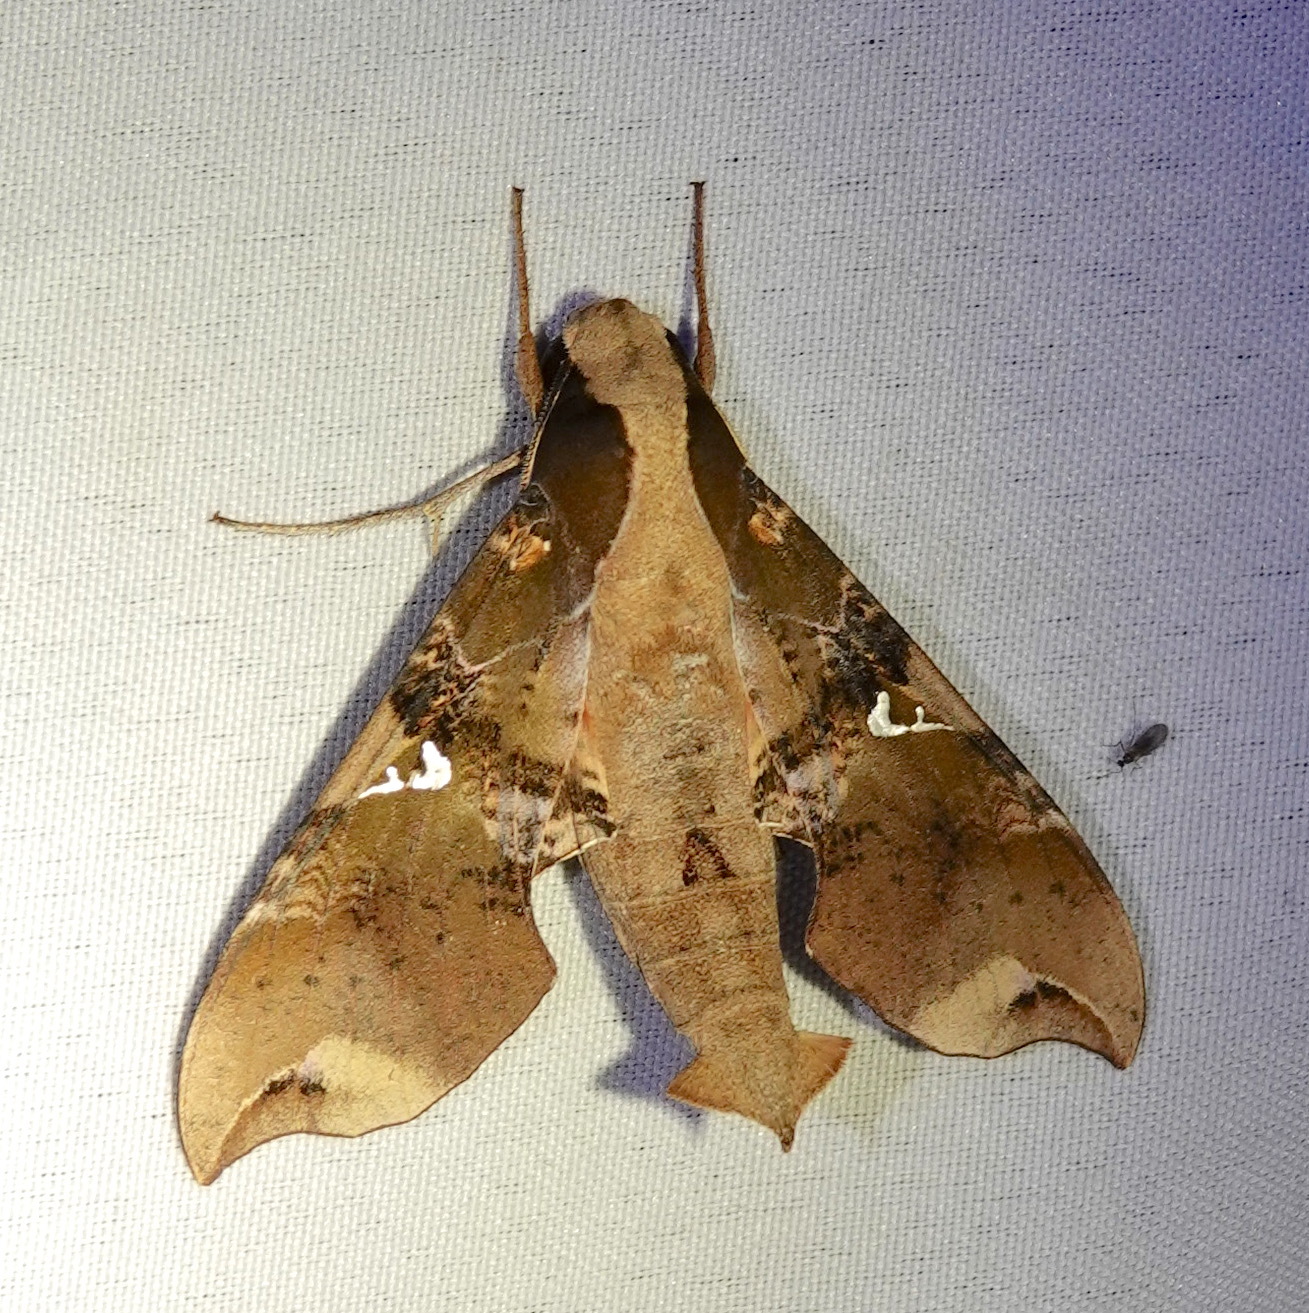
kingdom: Animalia
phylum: Arthropoda
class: Insecta
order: Lepidoptera
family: Sphingidae
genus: Callionima
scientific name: Callionima falcifera
